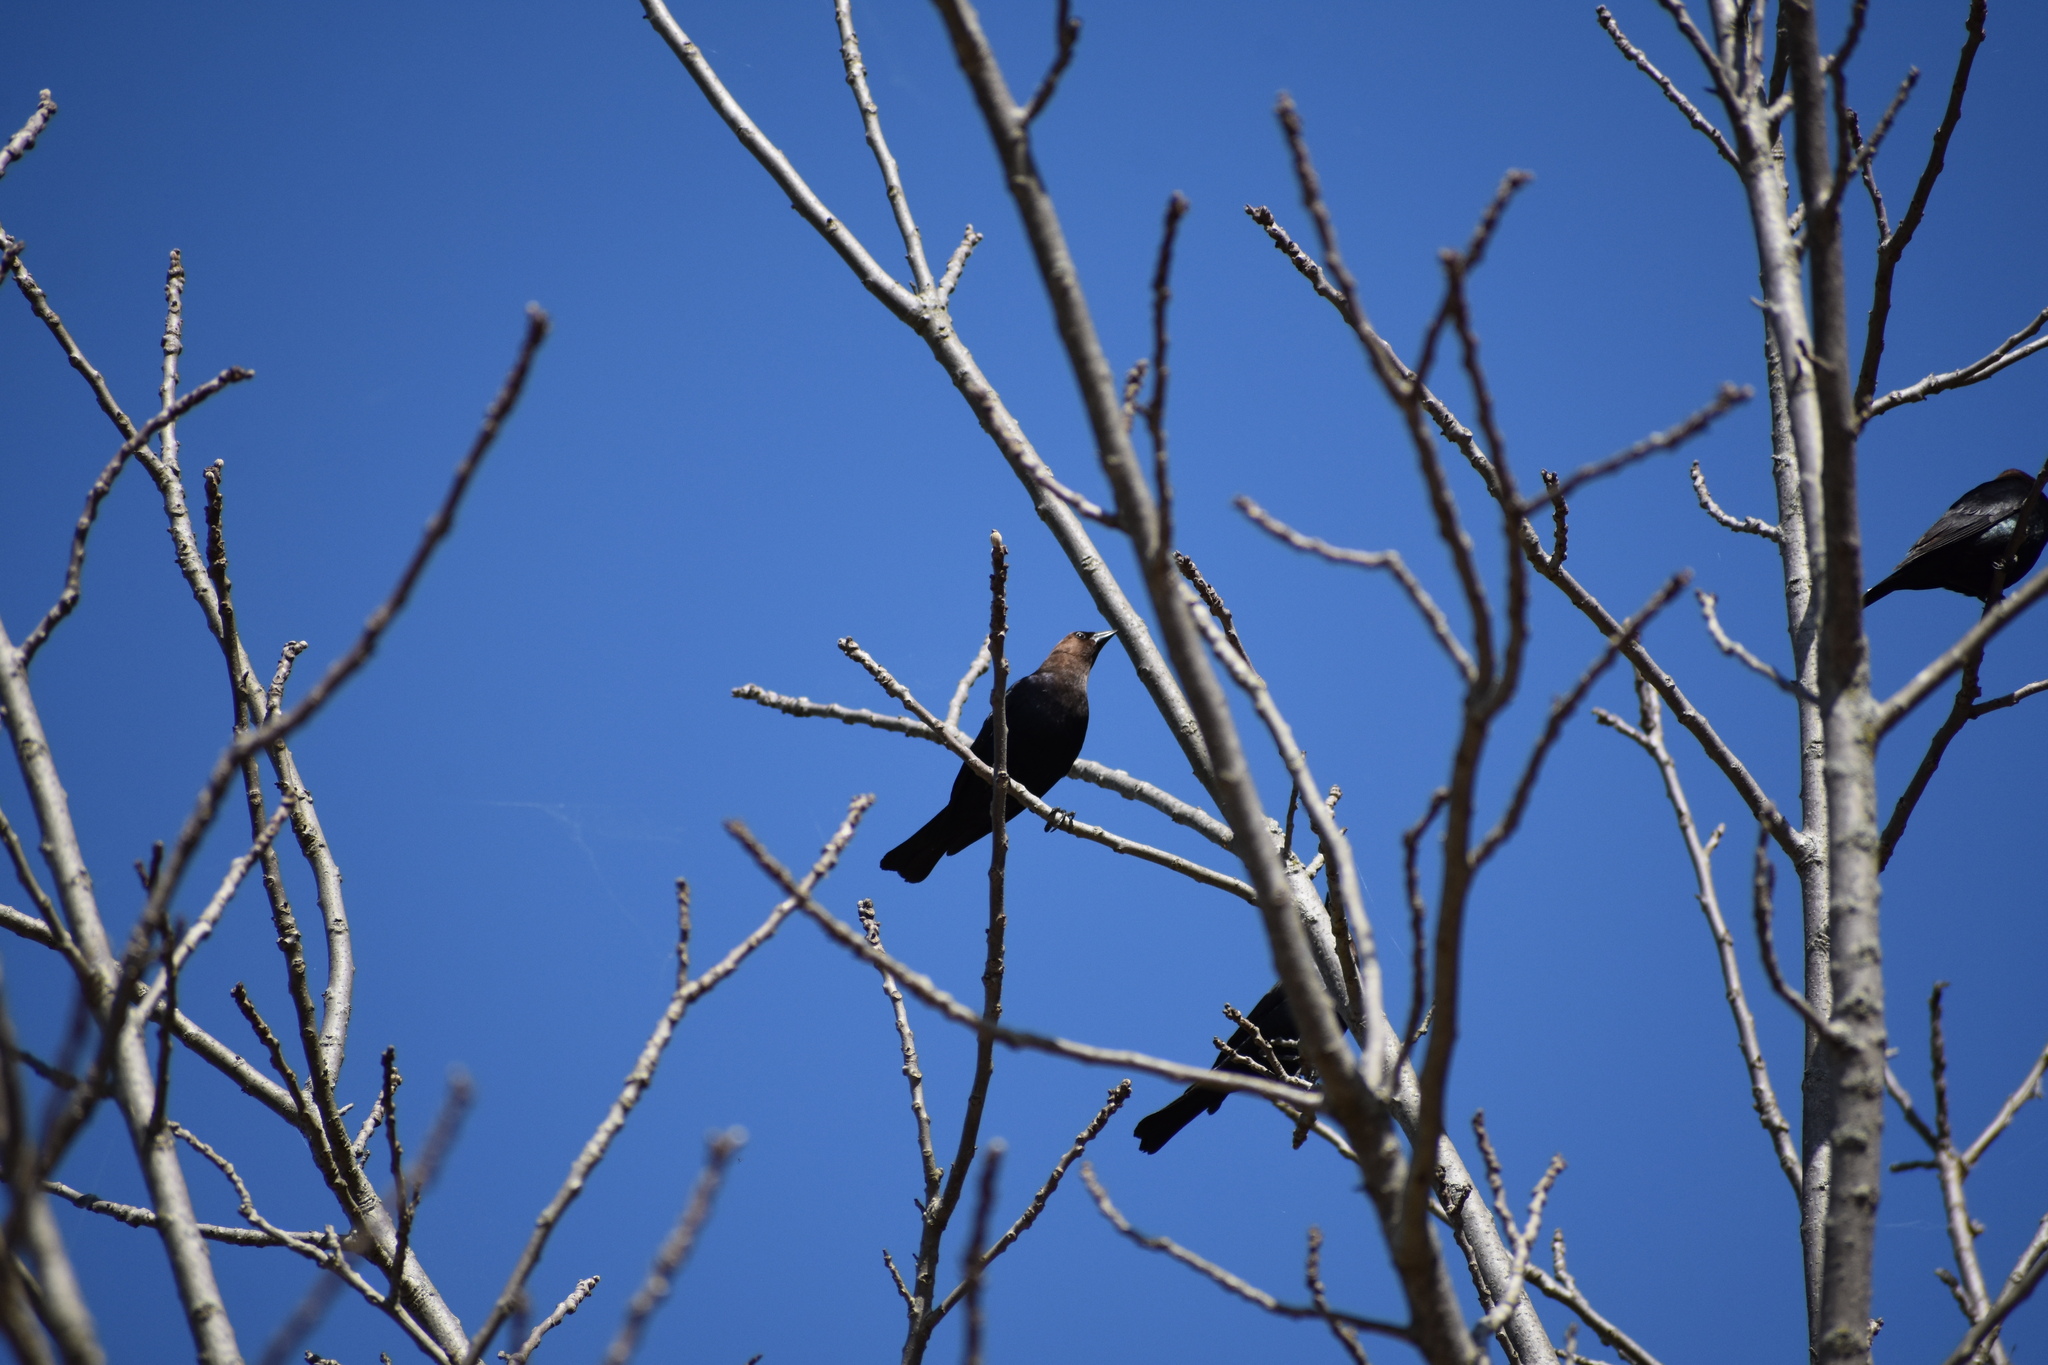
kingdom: Animalia
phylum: Chordata
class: Aves
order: Passeriformes
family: Icteridae
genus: Molothrus
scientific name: Molothrus ater
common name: Brown-headed cowbird
